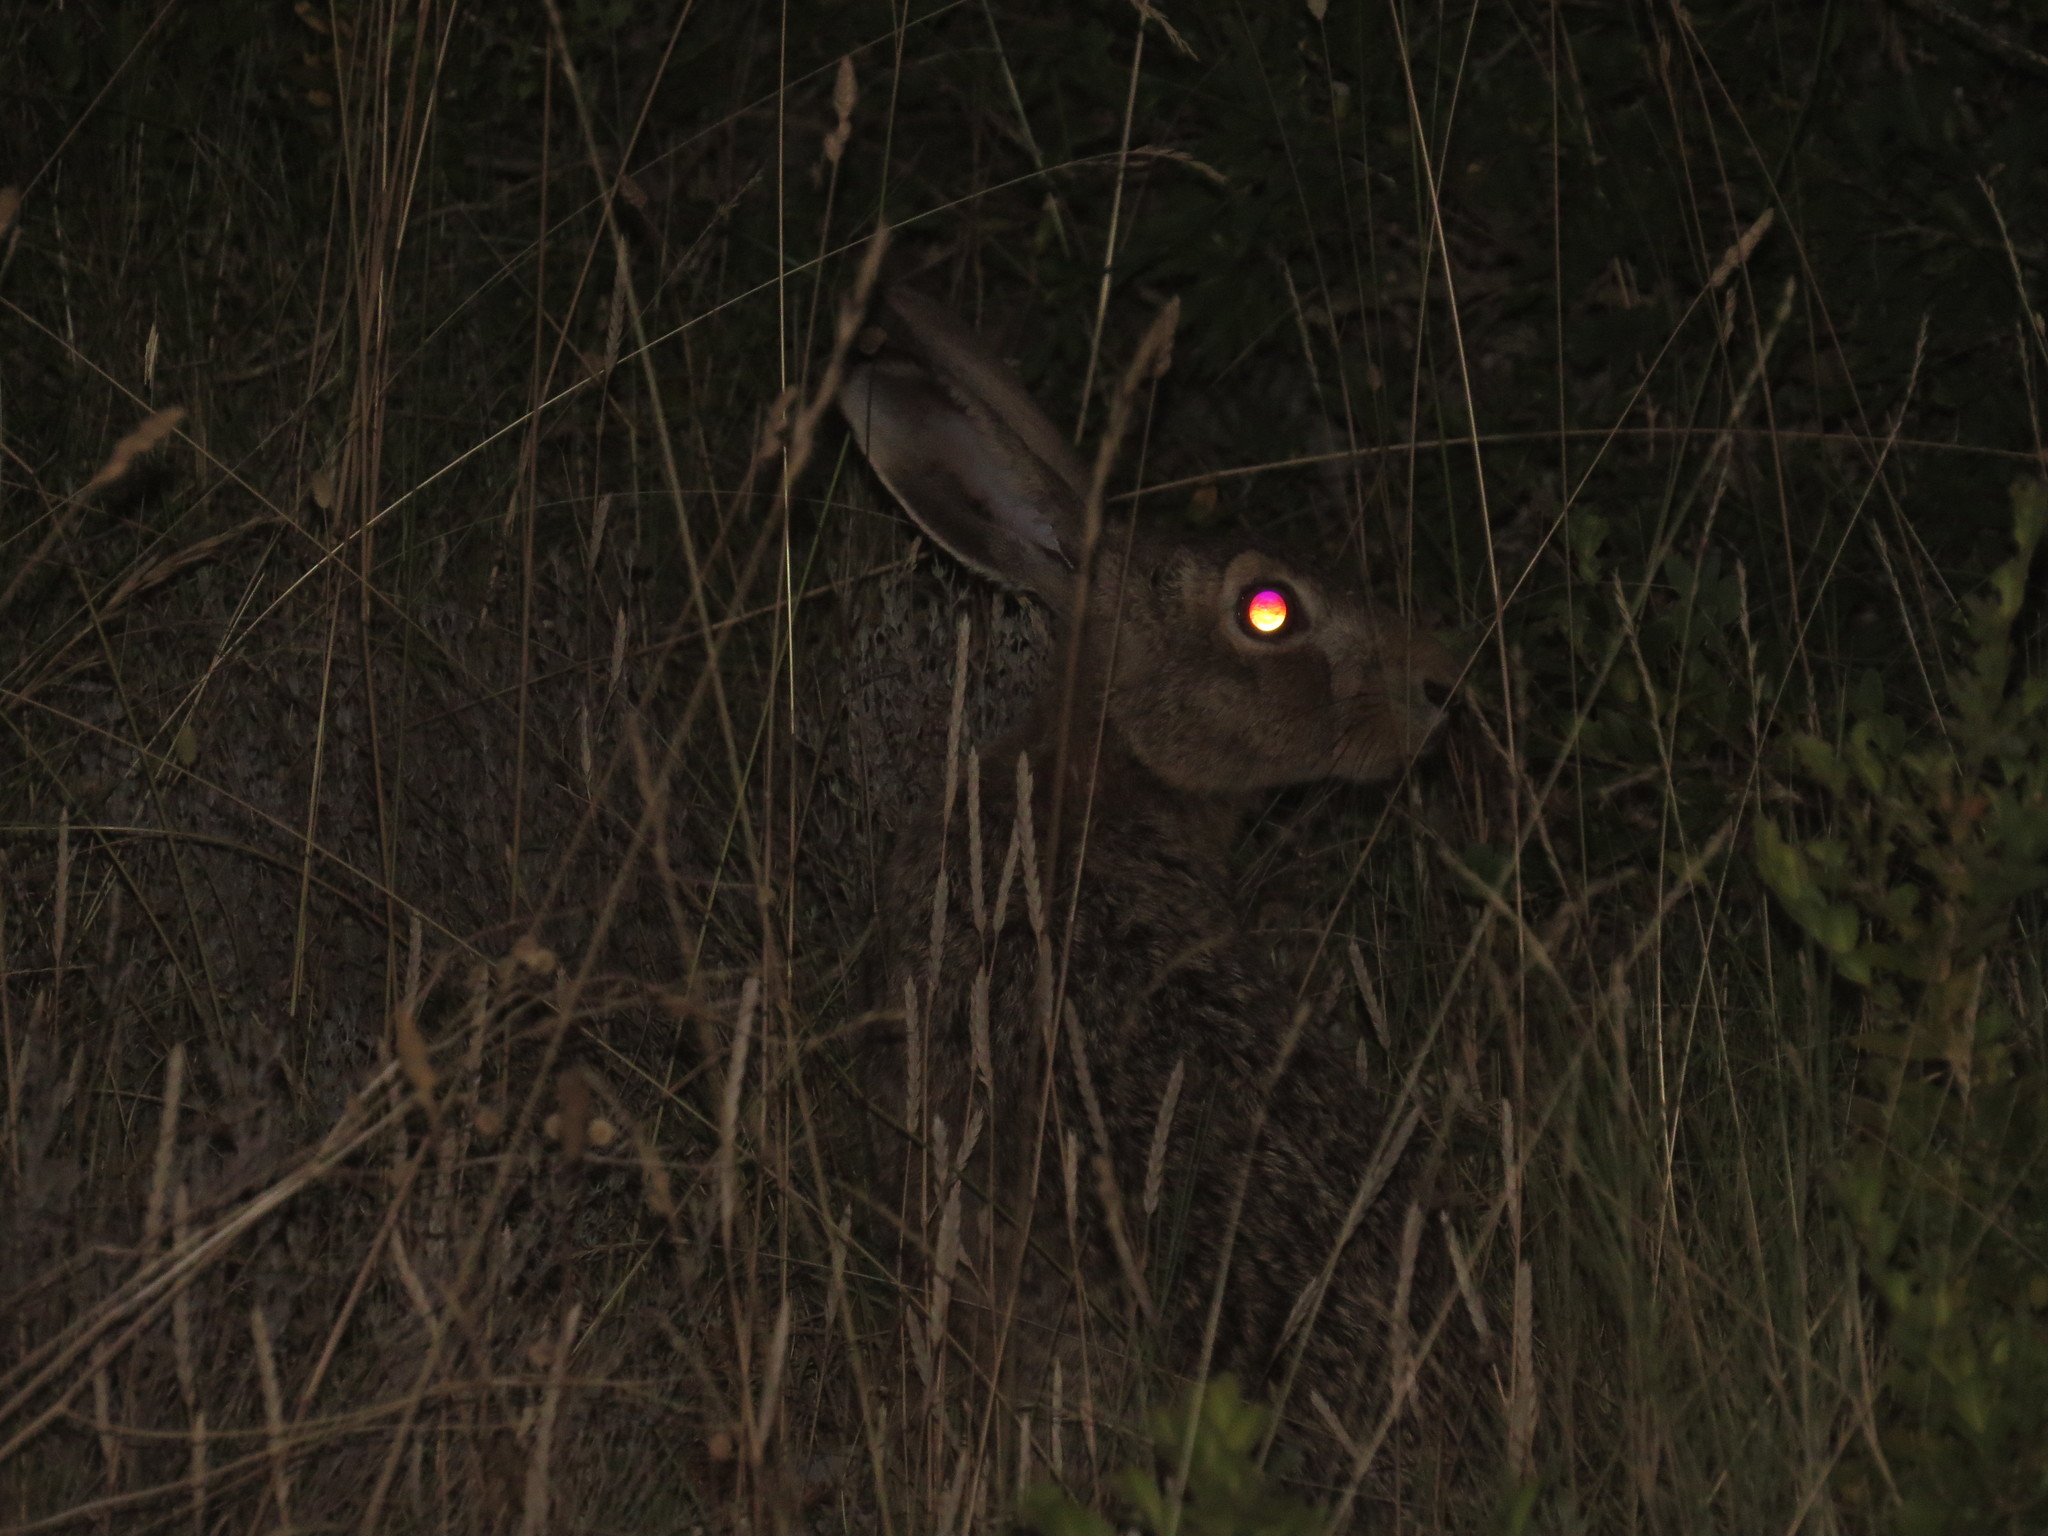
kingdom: Animalia
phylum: Chordata
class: Mammalia
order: Lagomorpha
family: Leporidae
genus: Lepus
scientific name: Lepus europaeus
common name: European hare
